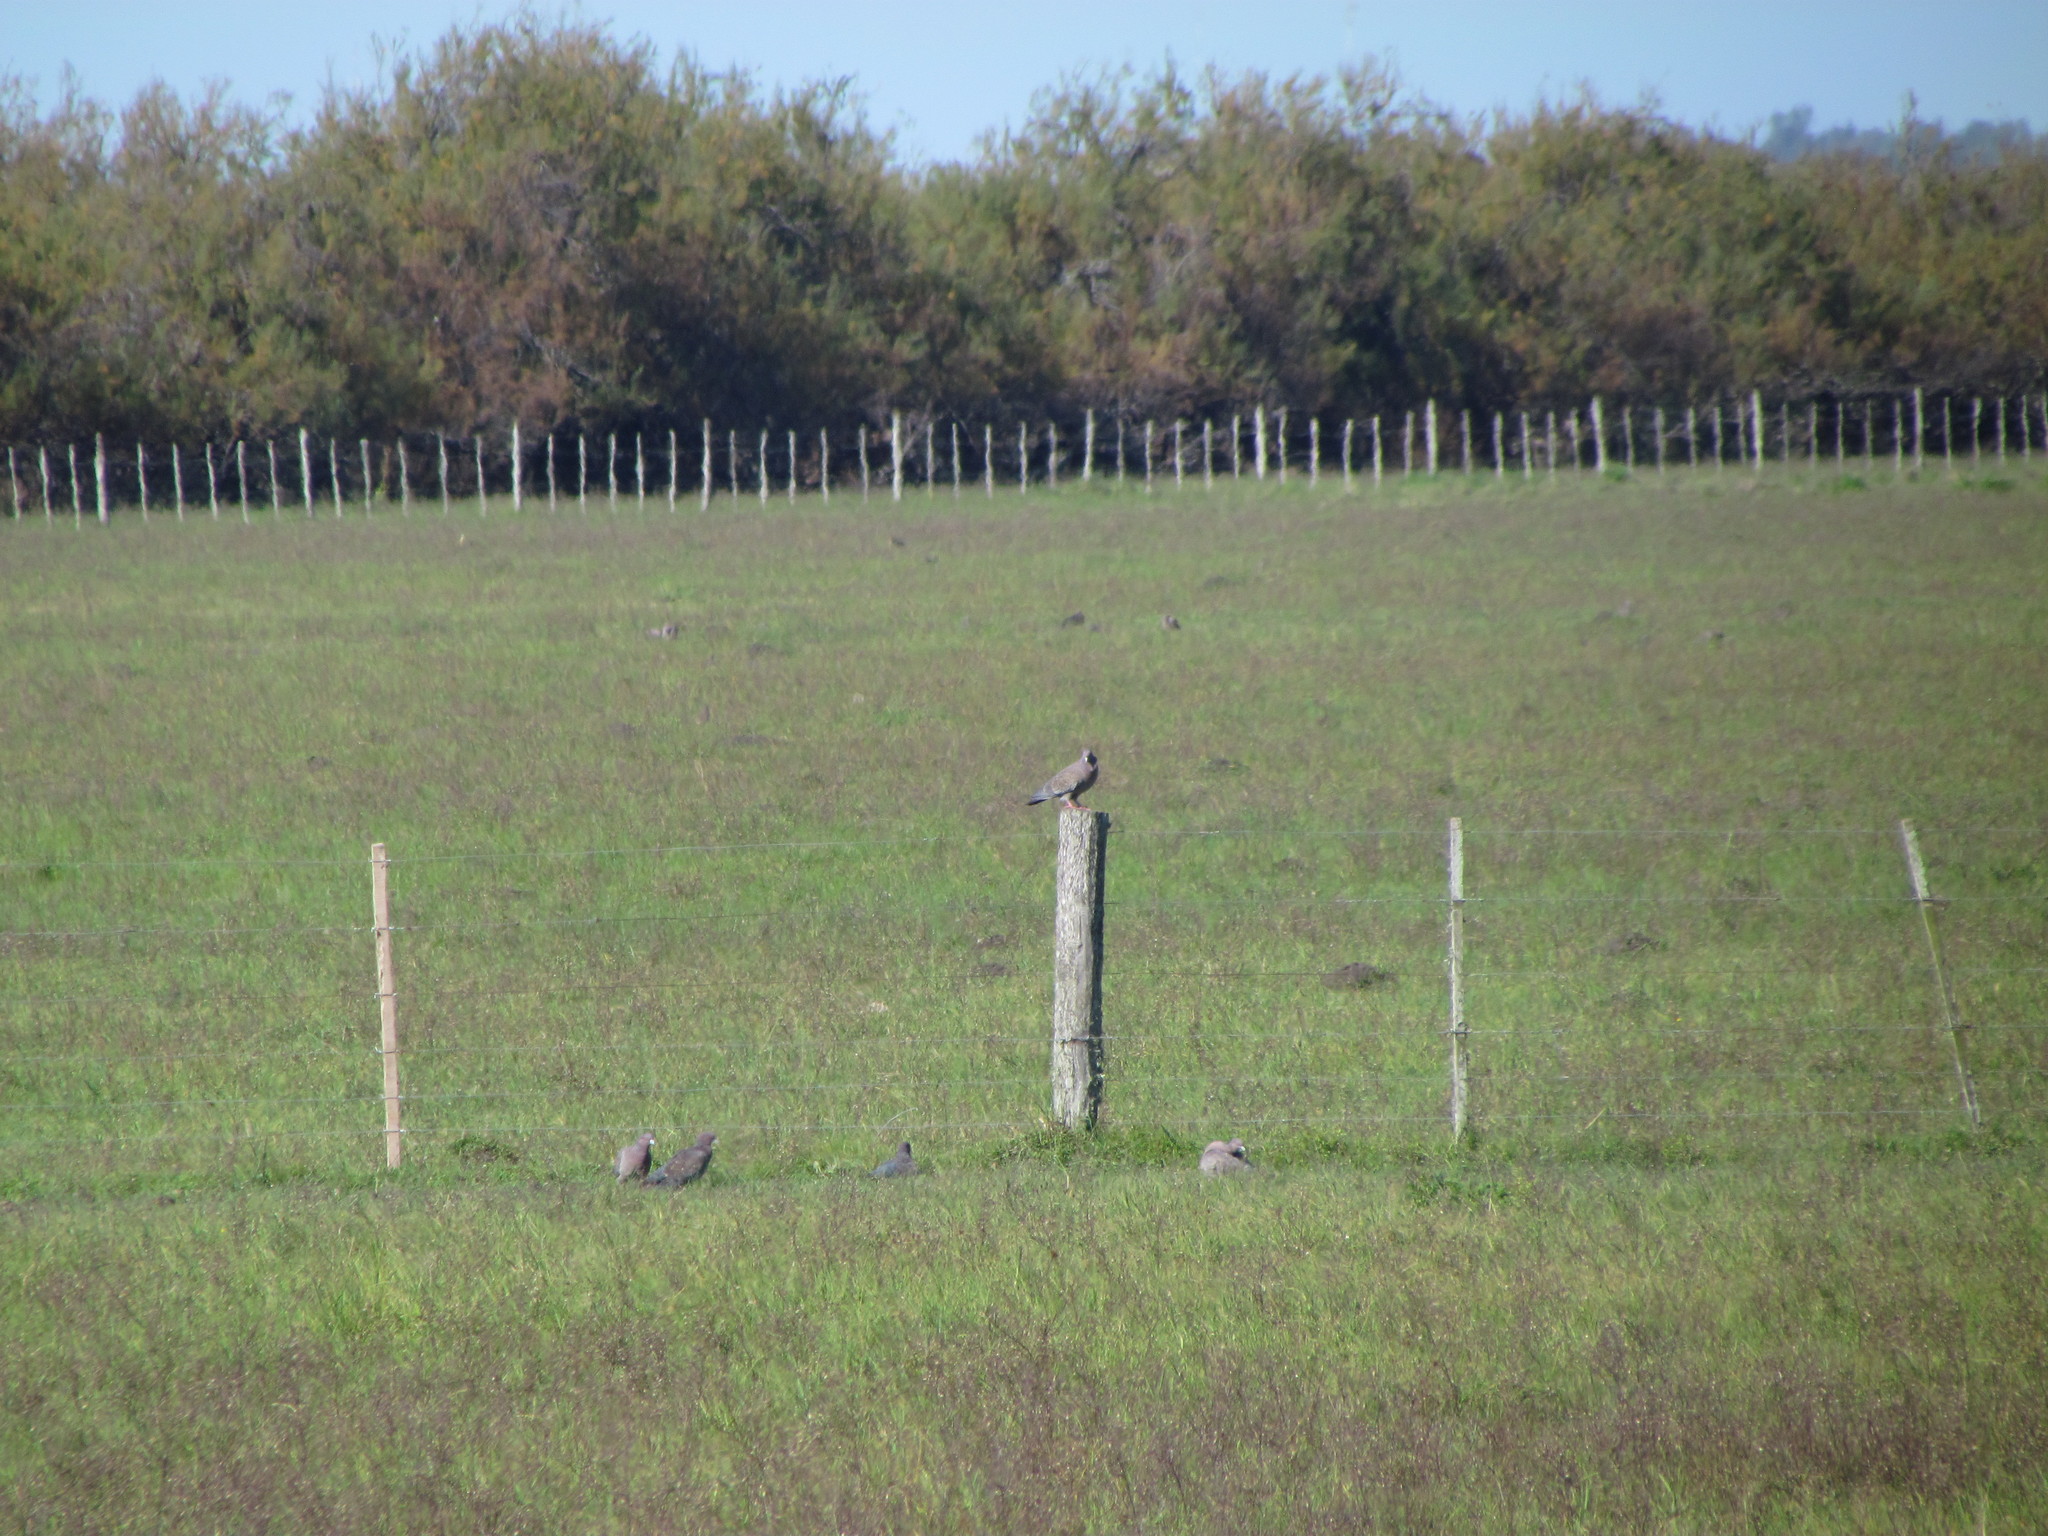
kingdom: Animalia
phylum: Chordata
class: Aves
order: Columbiformes
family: Columbidae
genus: Patagioenas
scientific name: Patagioenas picazuro
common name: Picazuro pigeon
